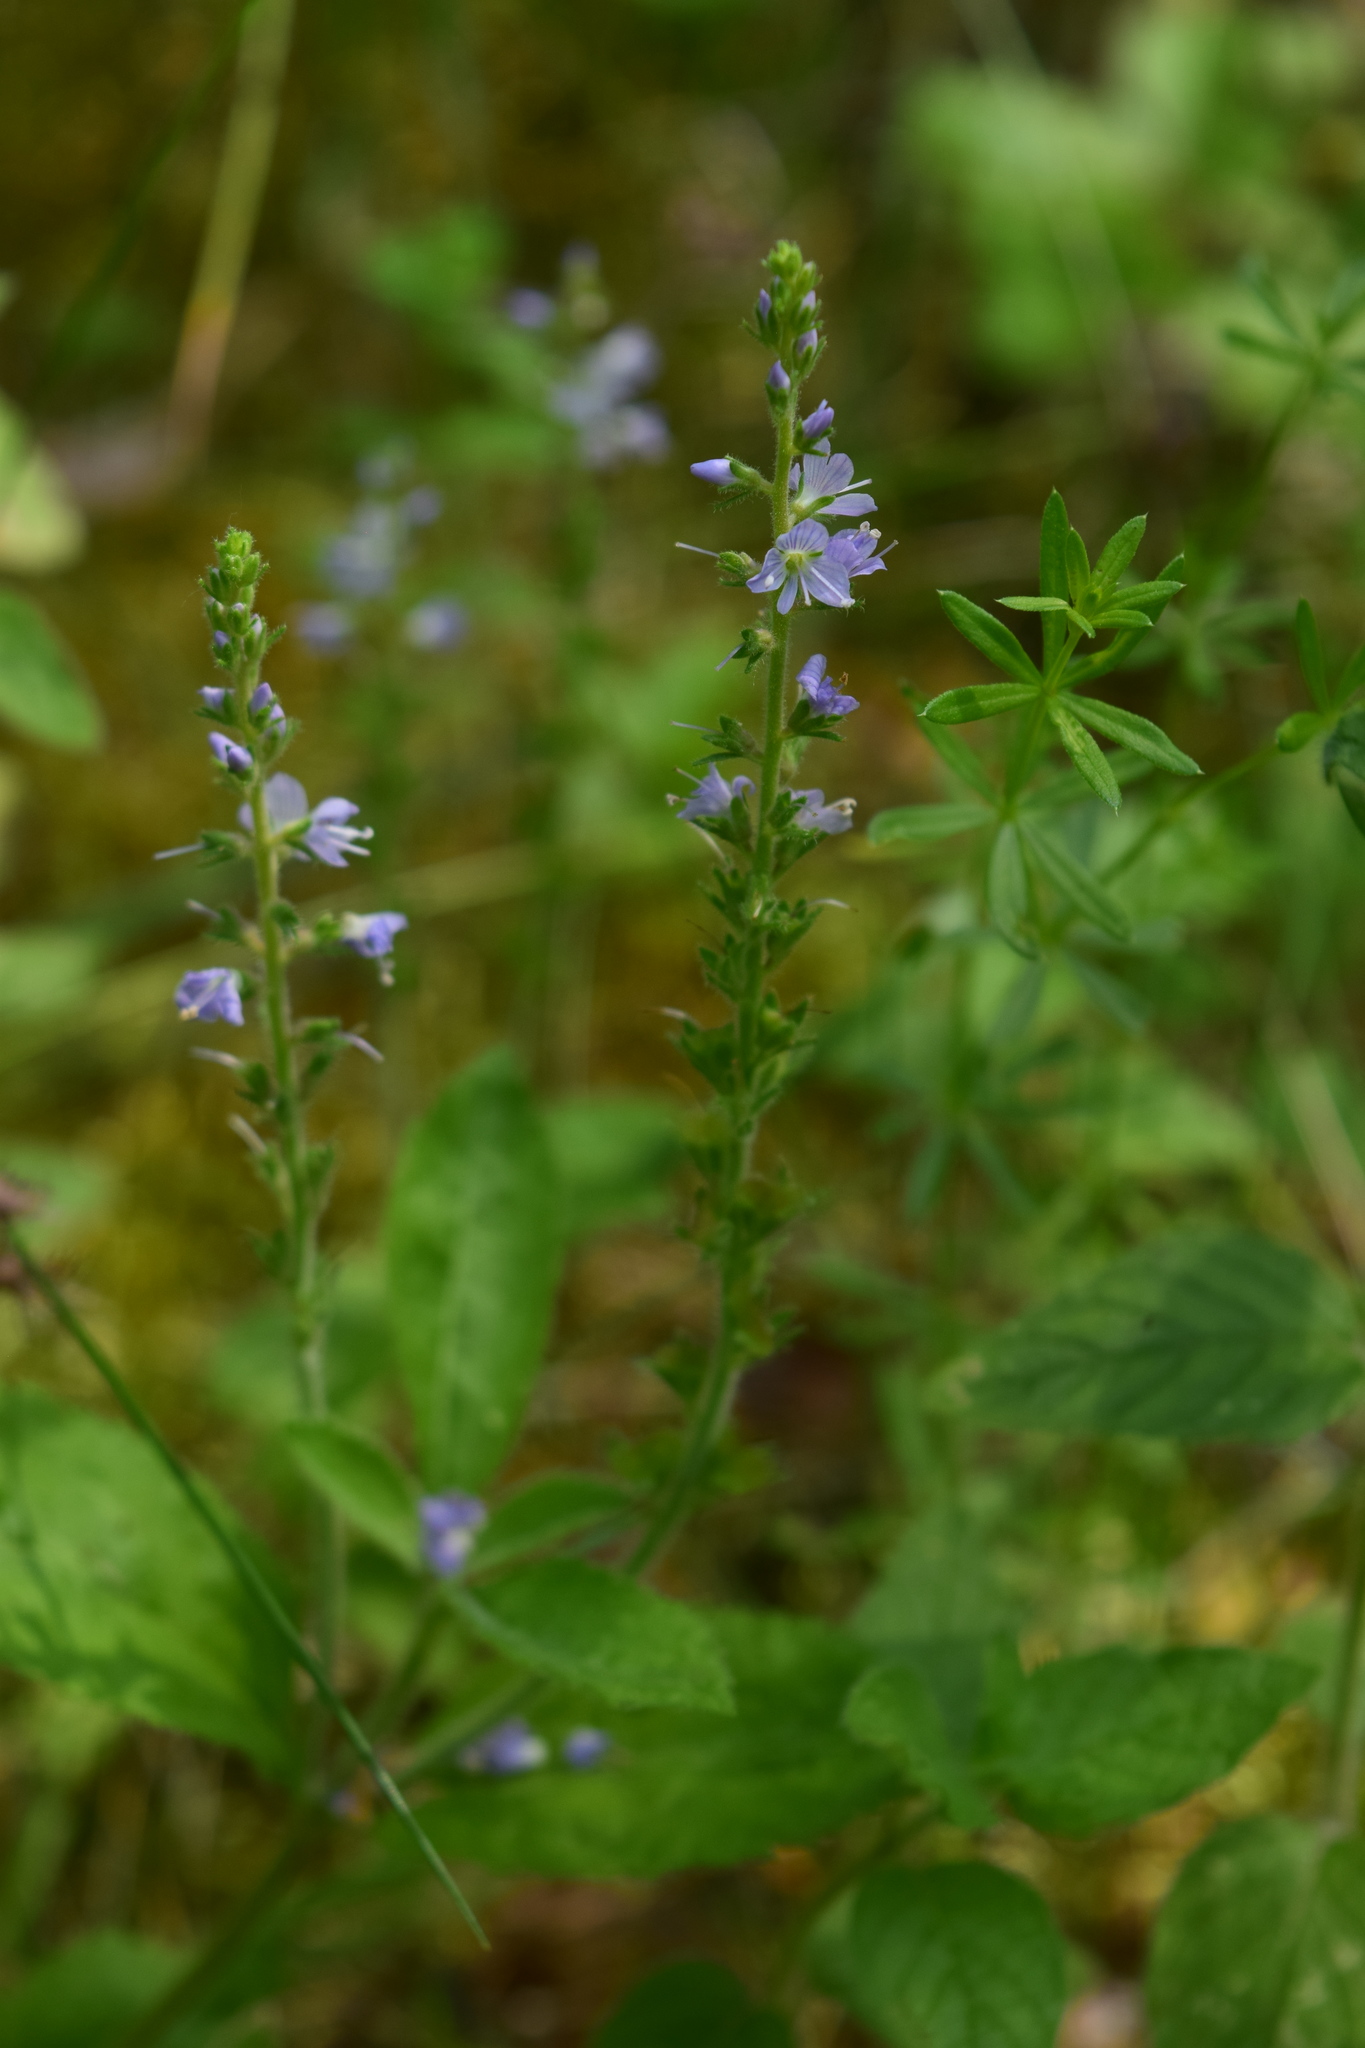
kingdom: Plantae
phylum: Tracheophyta
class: Magnoliopsida
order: Lamiales
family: Plantaginaceae
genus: Veronica
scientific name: Veronica officinalis
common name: Common speedwell
